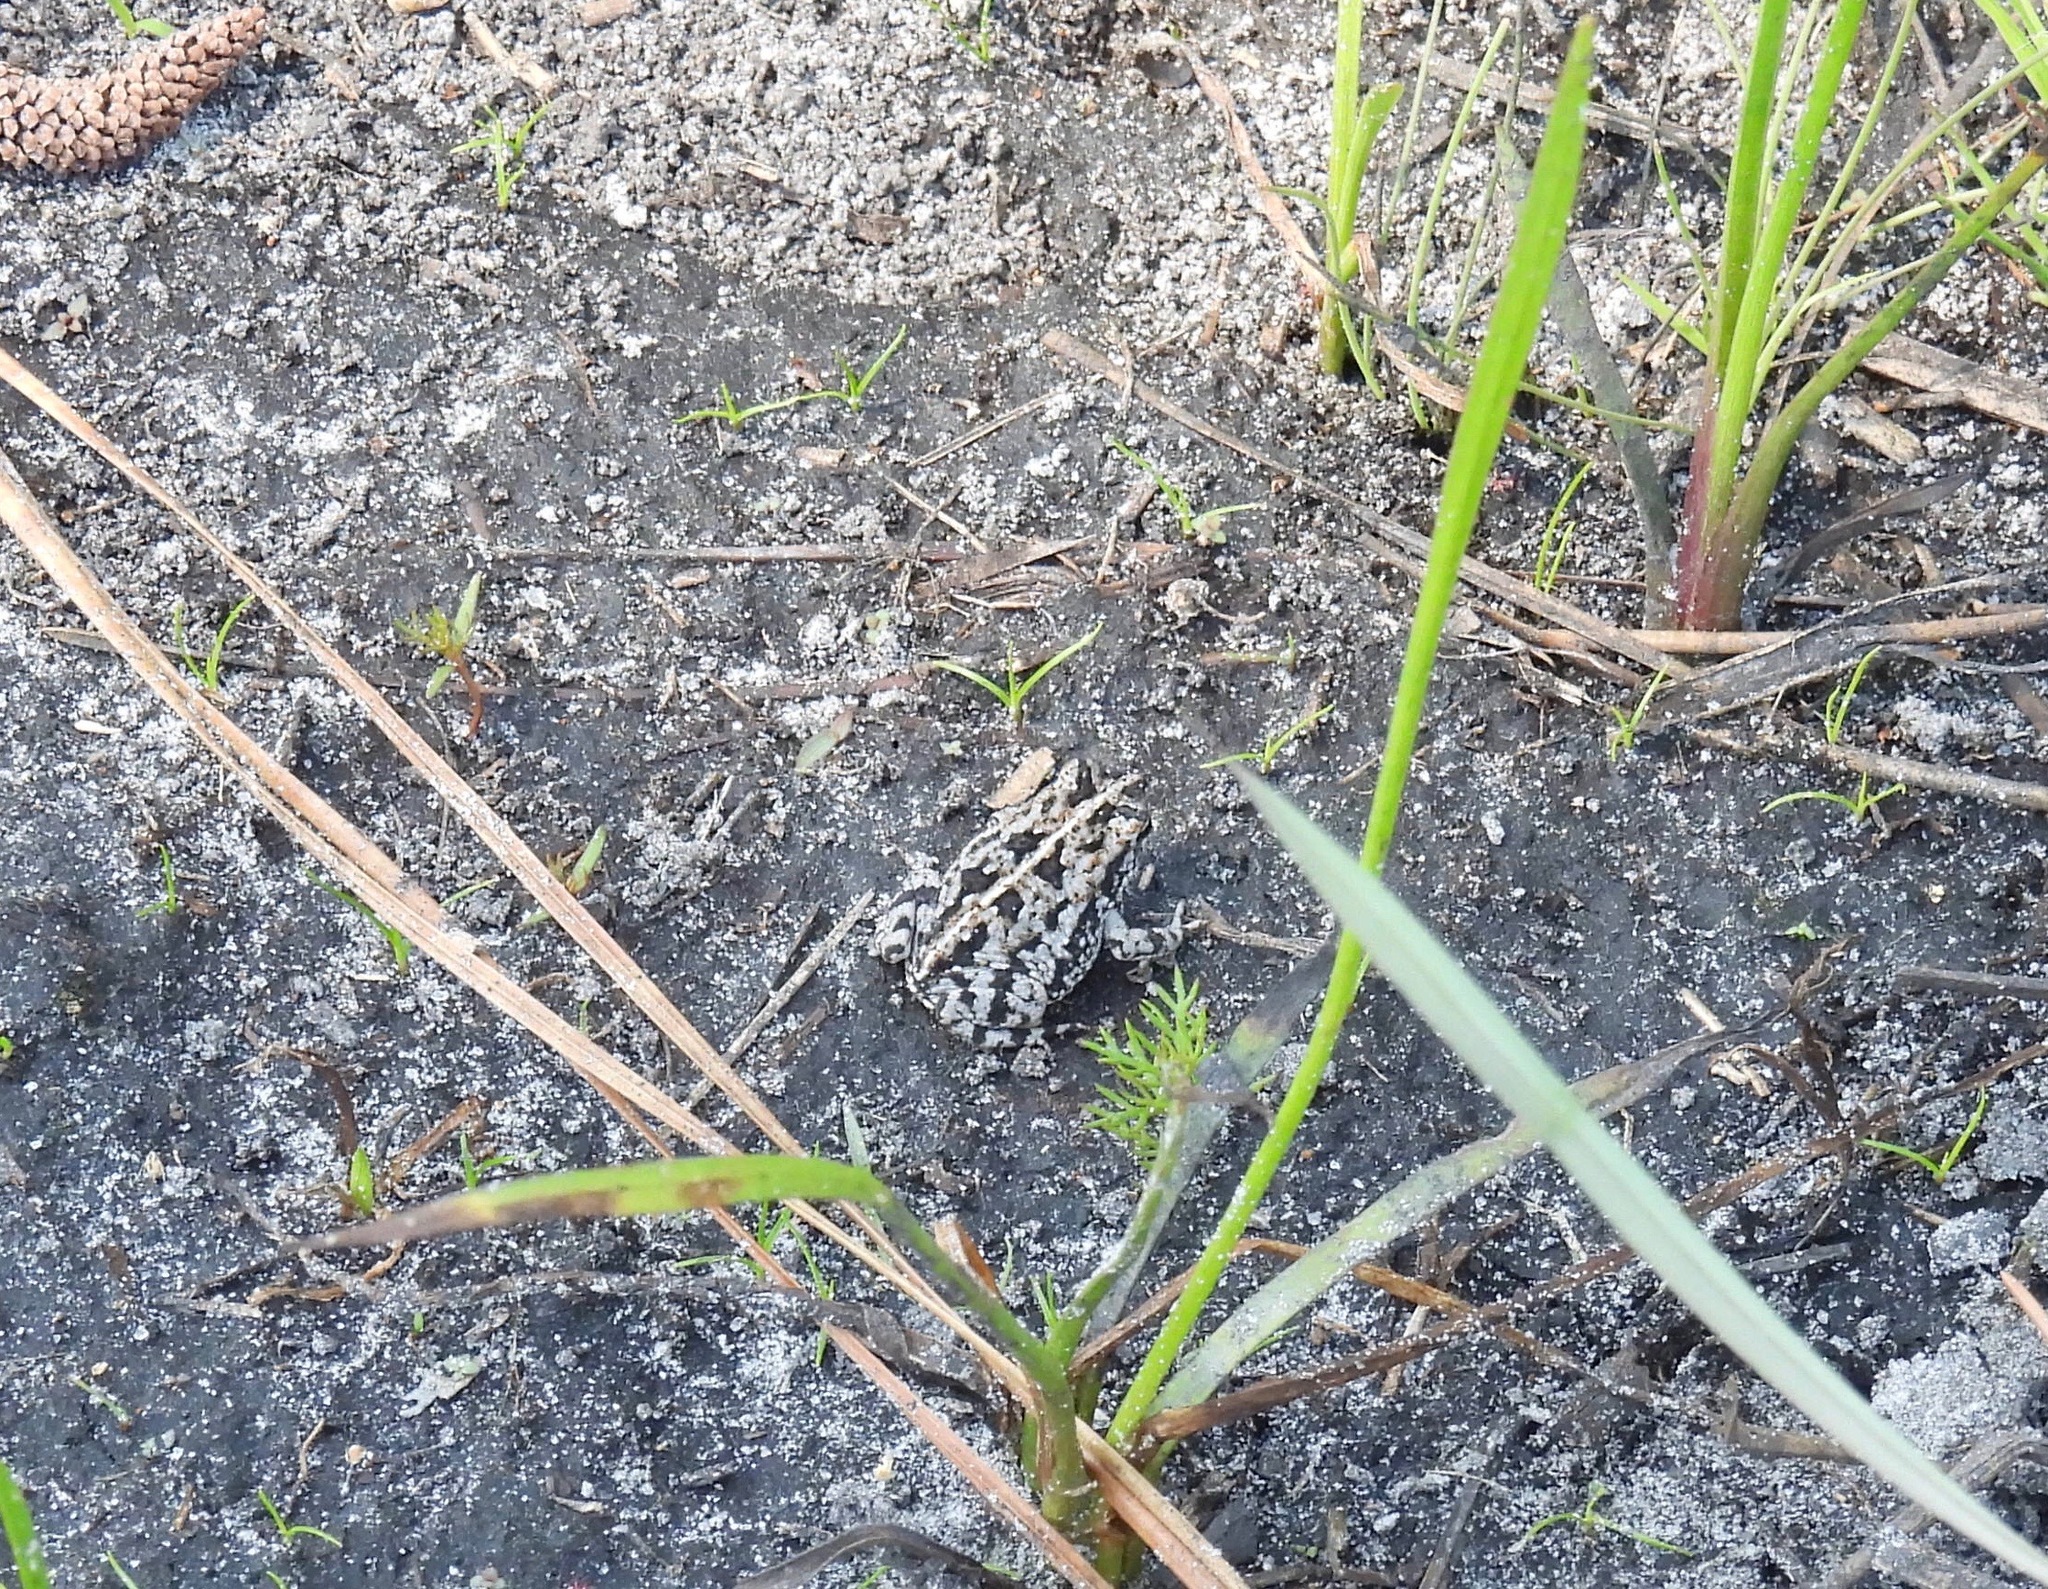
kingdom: Animalia
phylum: Chordata
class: Amphibia
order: Anura
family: Bufonidae
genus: Anaxyrus
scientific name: Anaxyrus quercicus
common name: Oak toad
